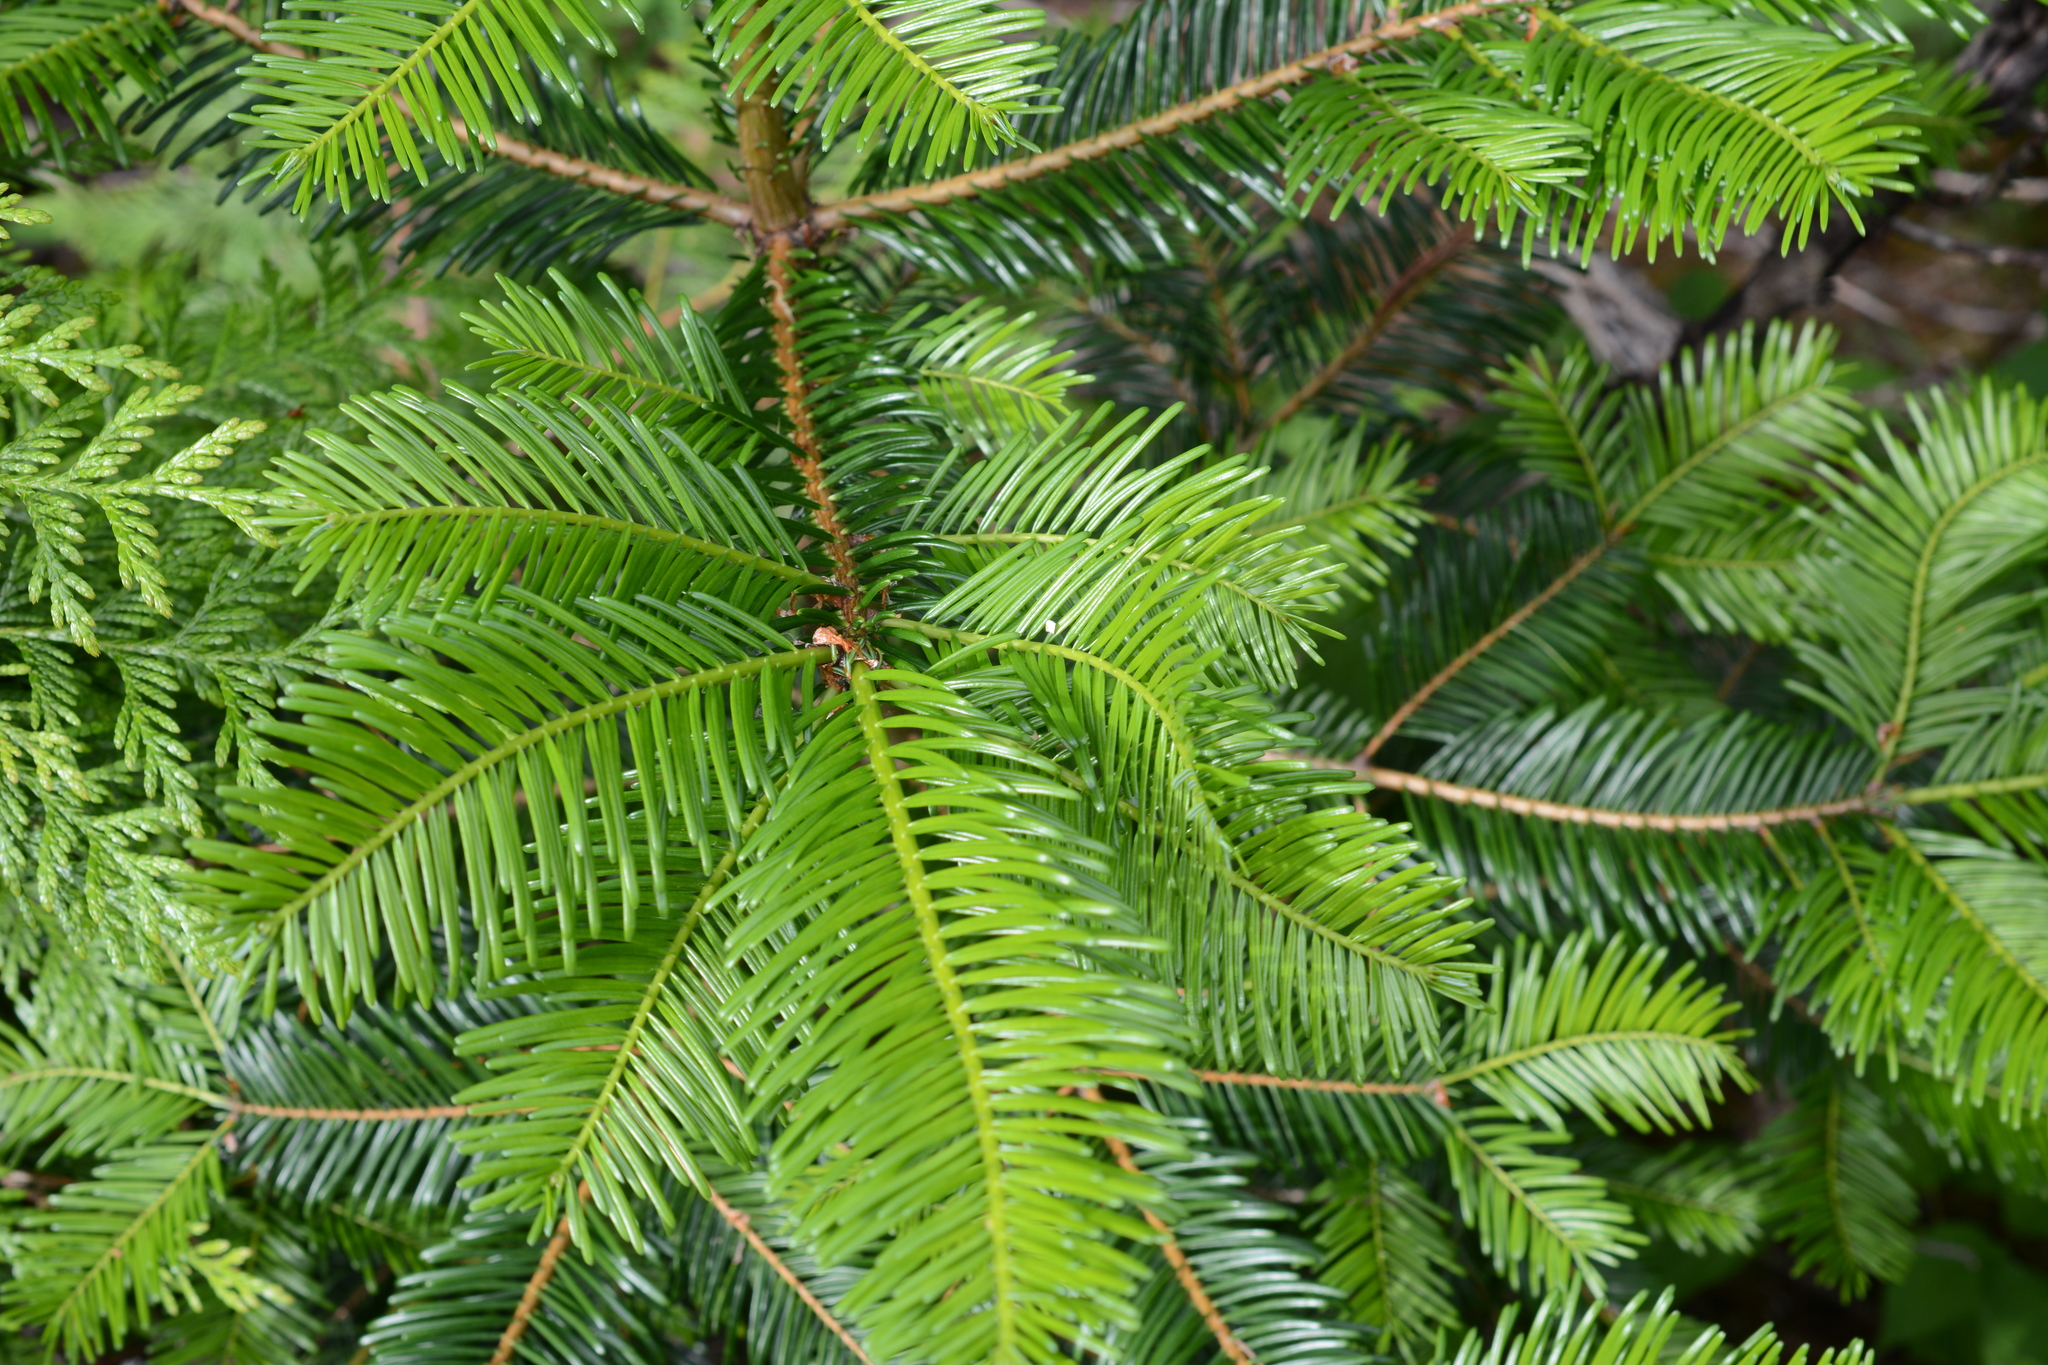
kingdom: Plantae
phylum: Tracheophyta
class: Pinopsida
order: Pinales
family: Pinaceae
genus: Abies
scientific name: Abies grandis
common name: Giant fir
